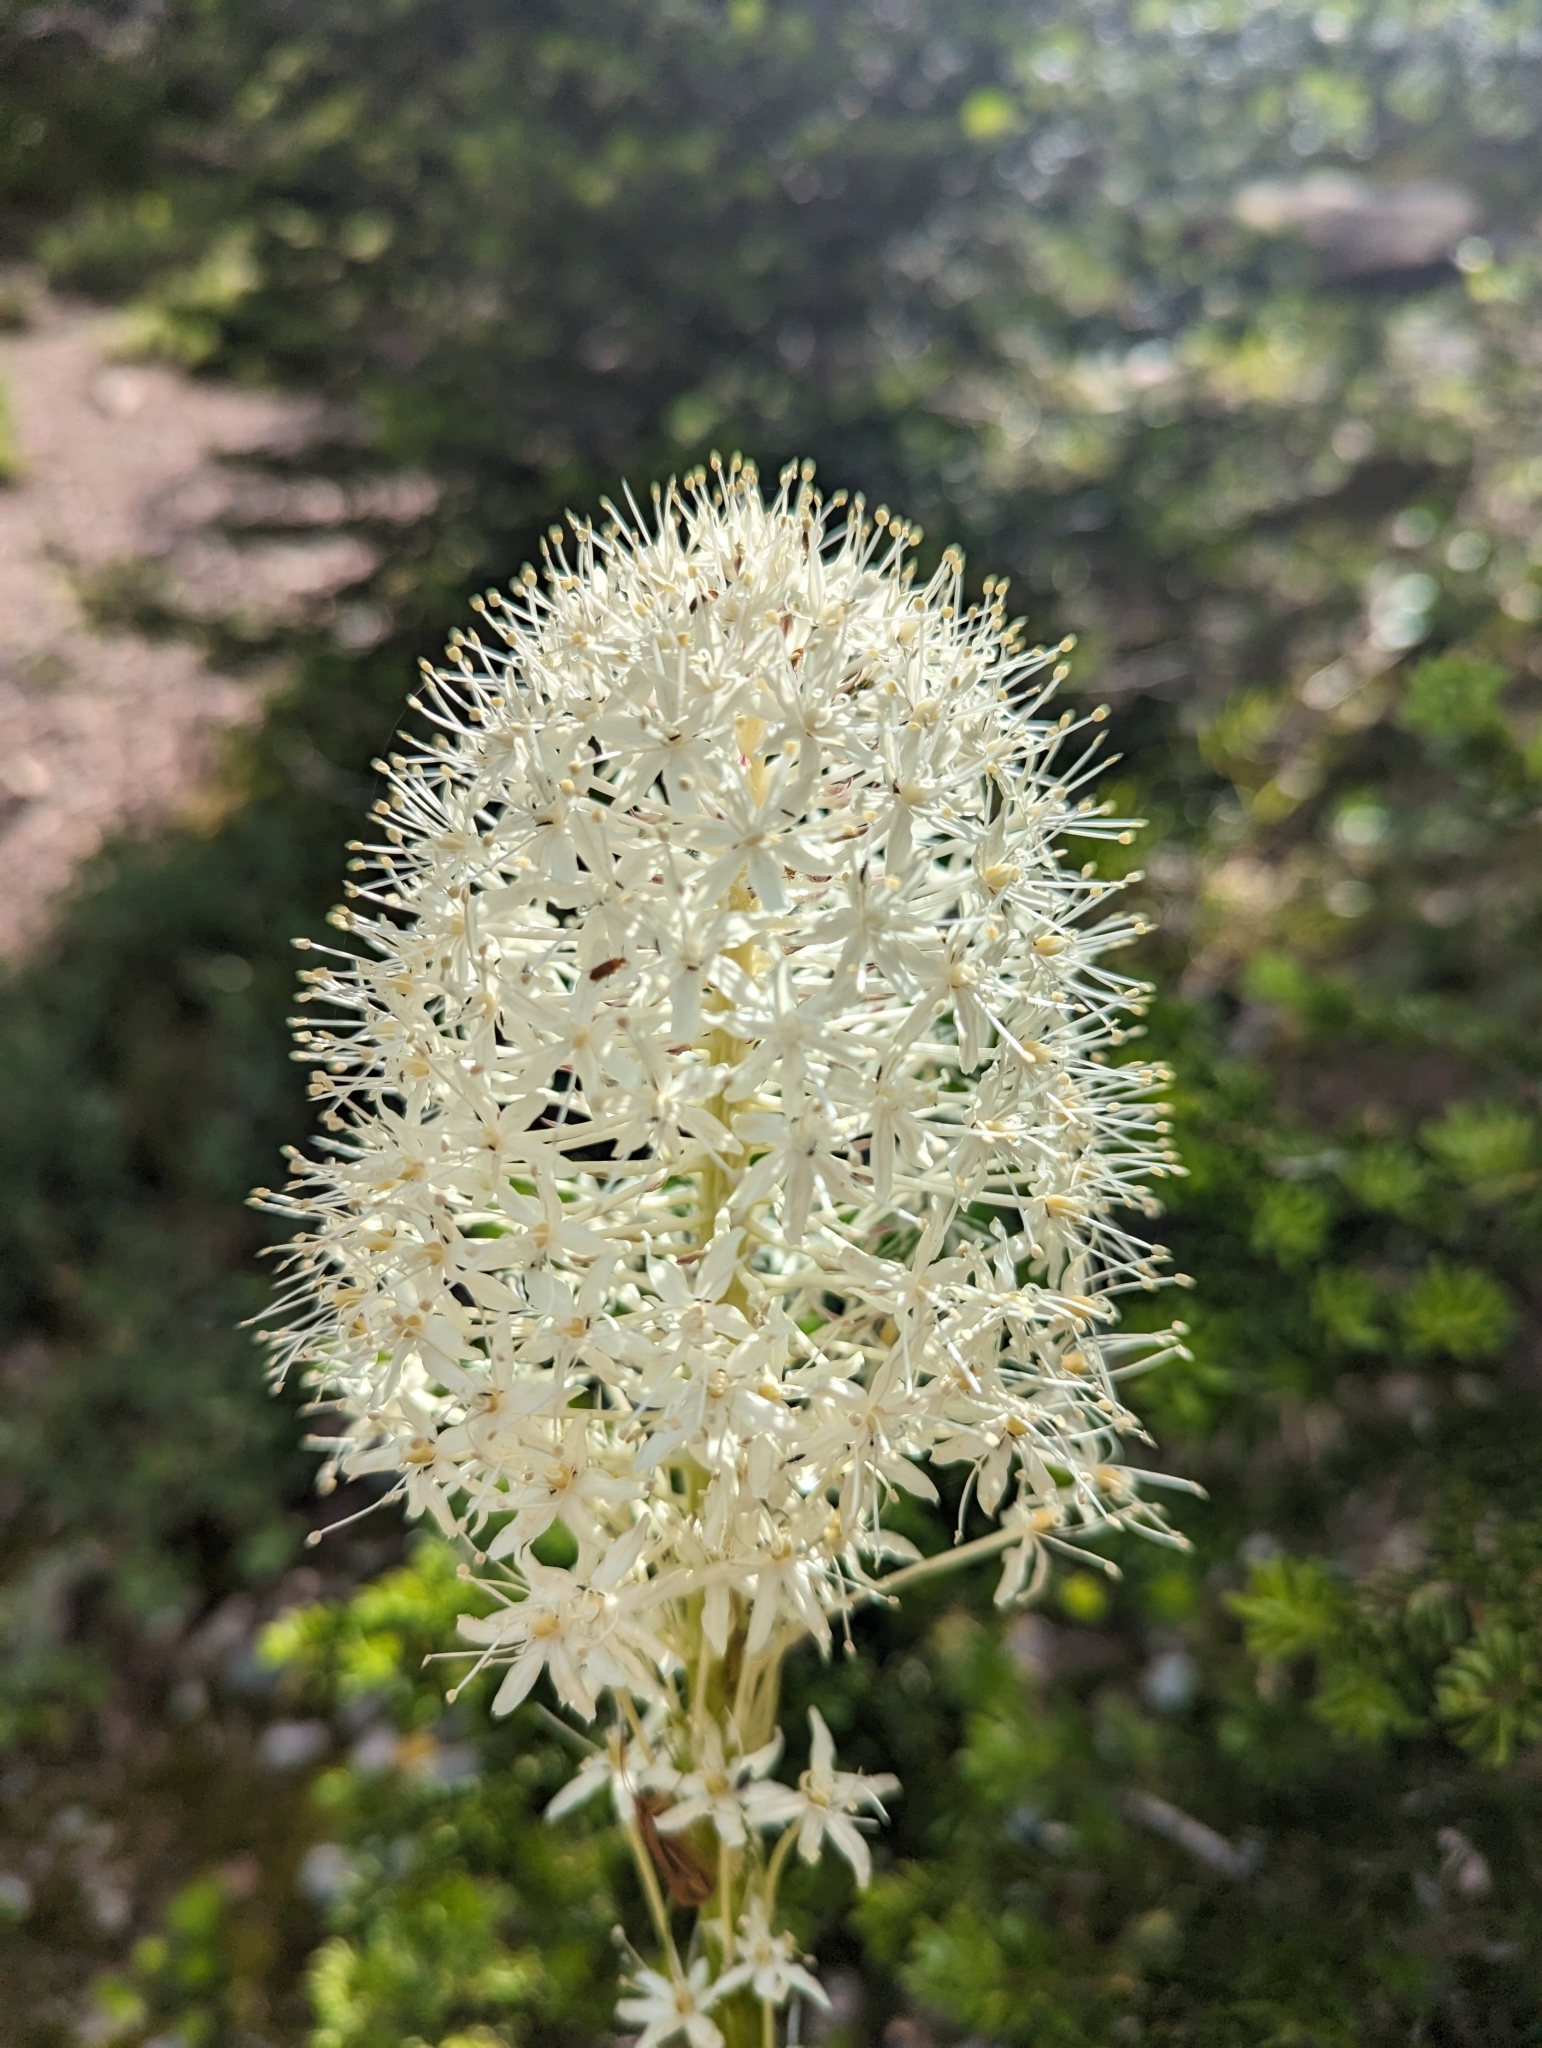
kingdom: Plantae
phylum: Tracheophyta
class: Liliopsida
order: Liliales
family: Melanthiaceae
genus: Xerophyllum
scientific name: Xerophyllum tenax
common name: Bear-grass
